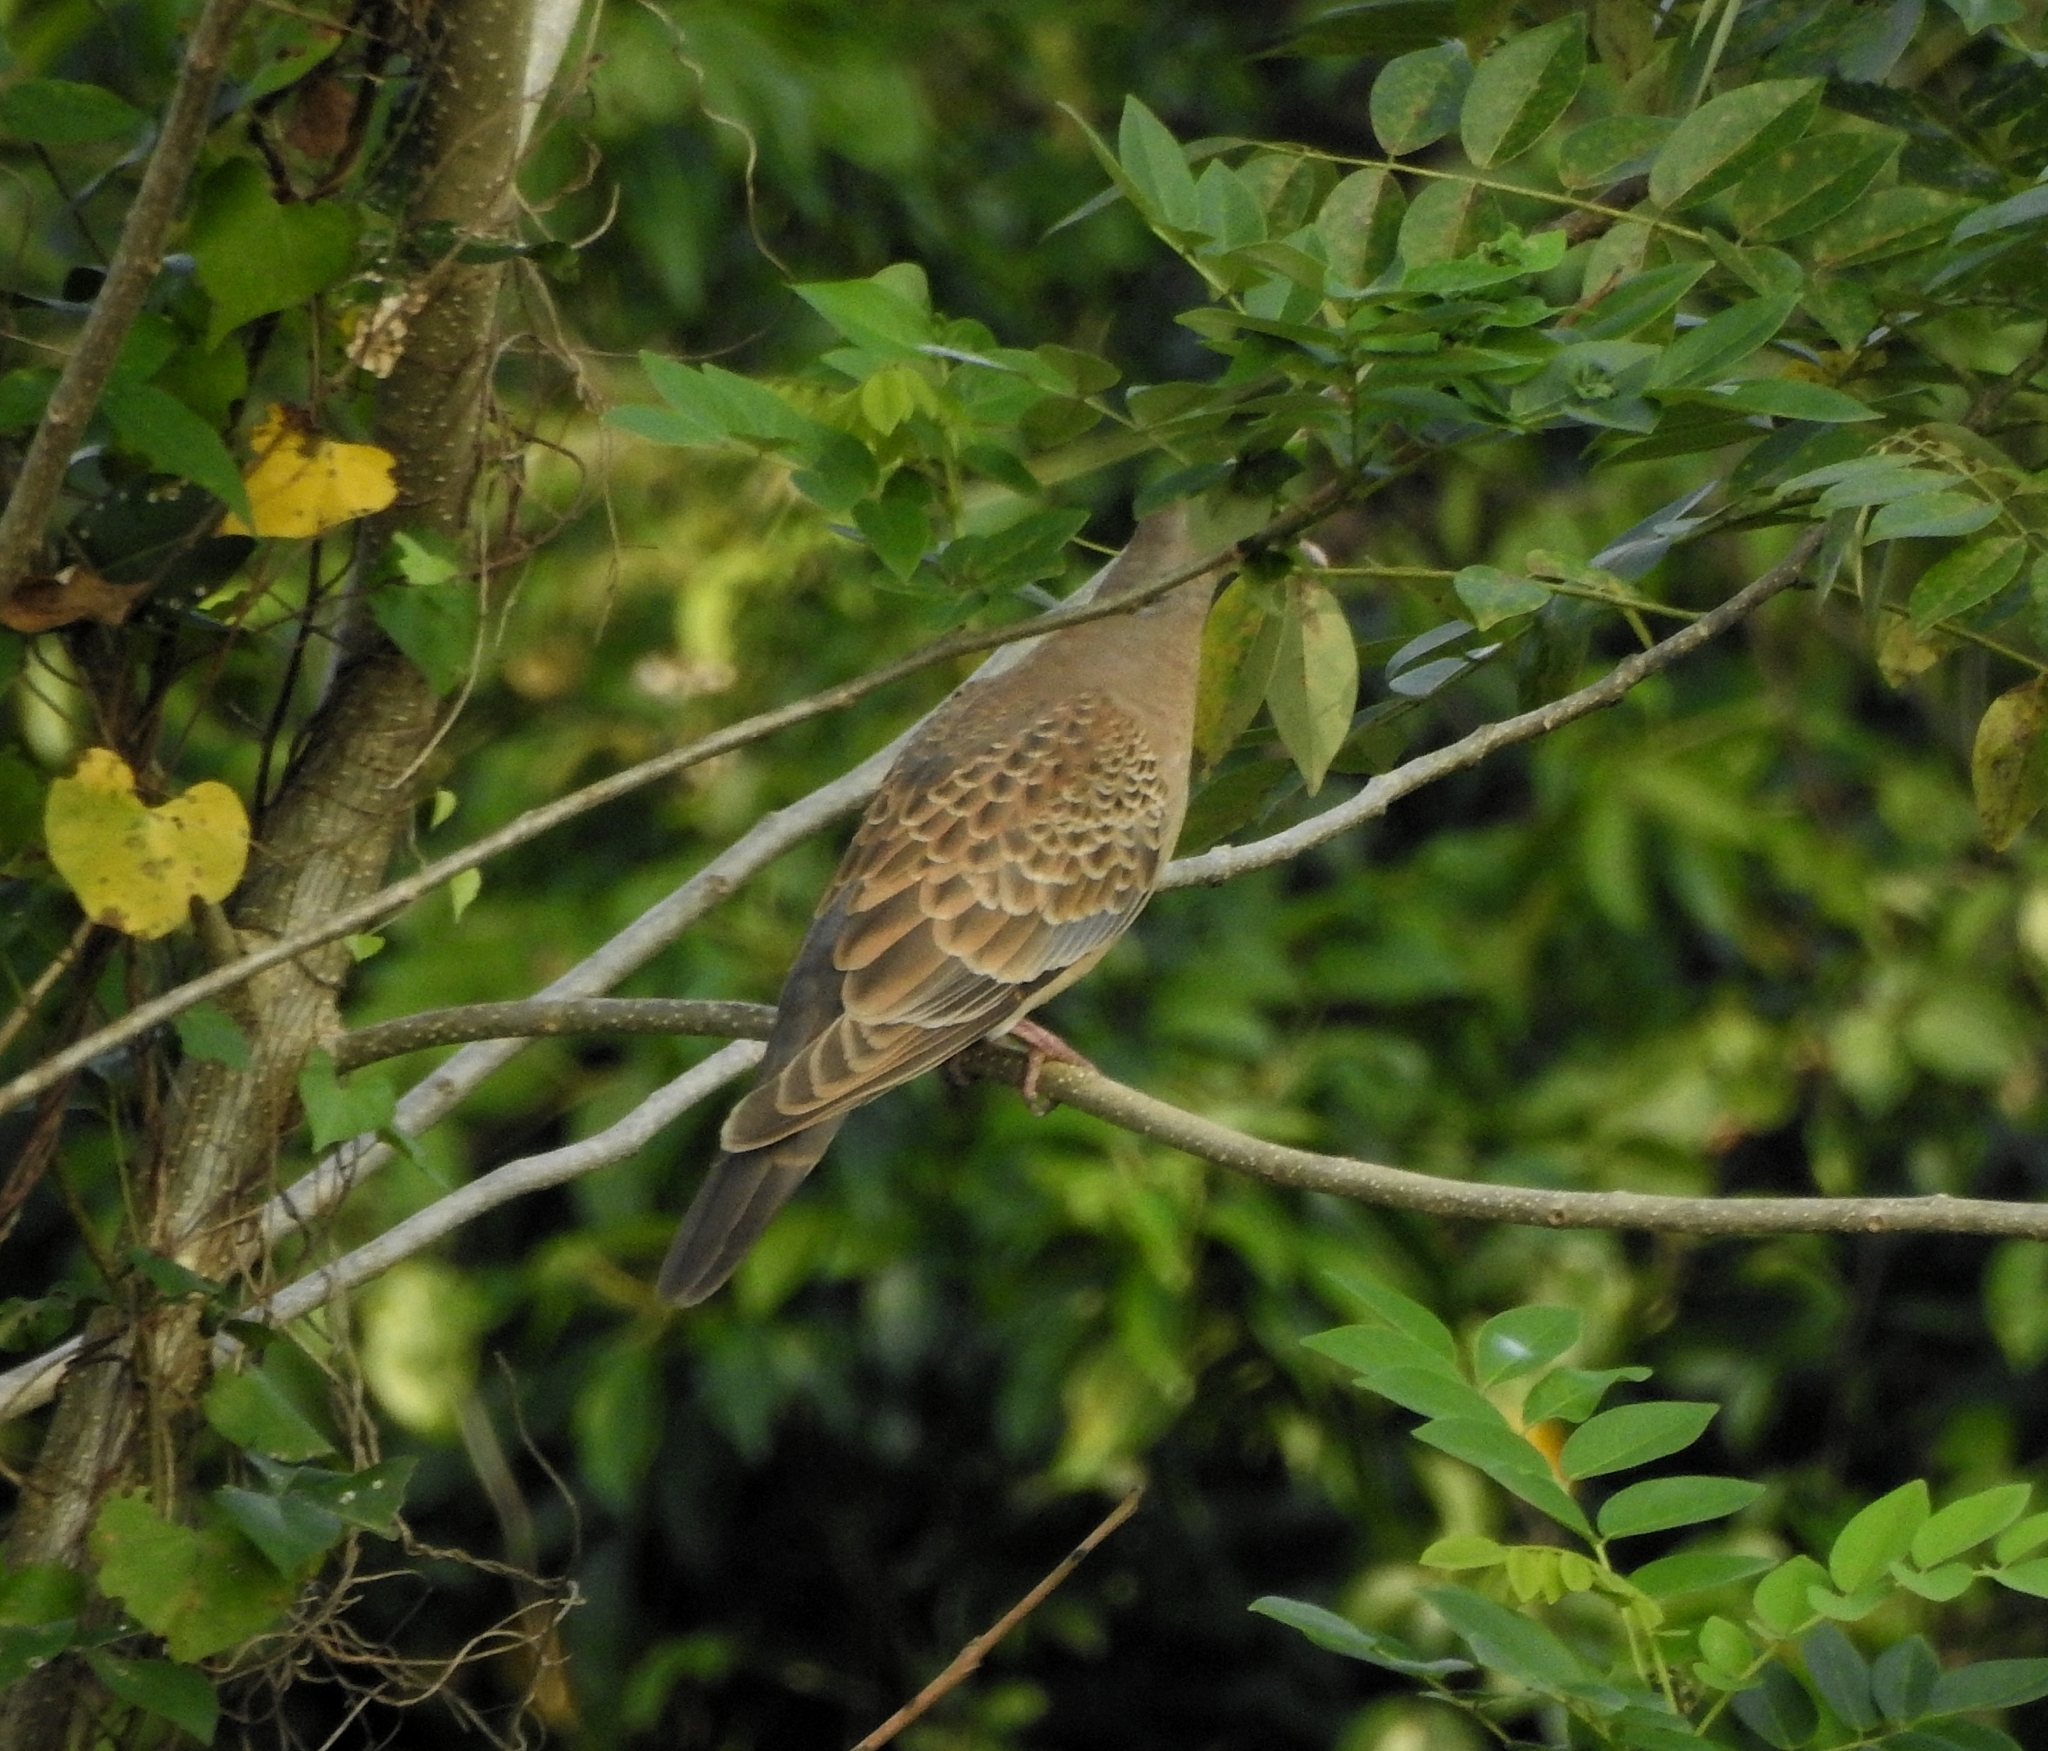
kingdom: Animalia
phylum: Chordata
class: Aves
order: Columbiformes
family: Columbidae
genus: Streptopelia
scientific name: Streptopelia orientalis
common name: Oriental turtle dove
